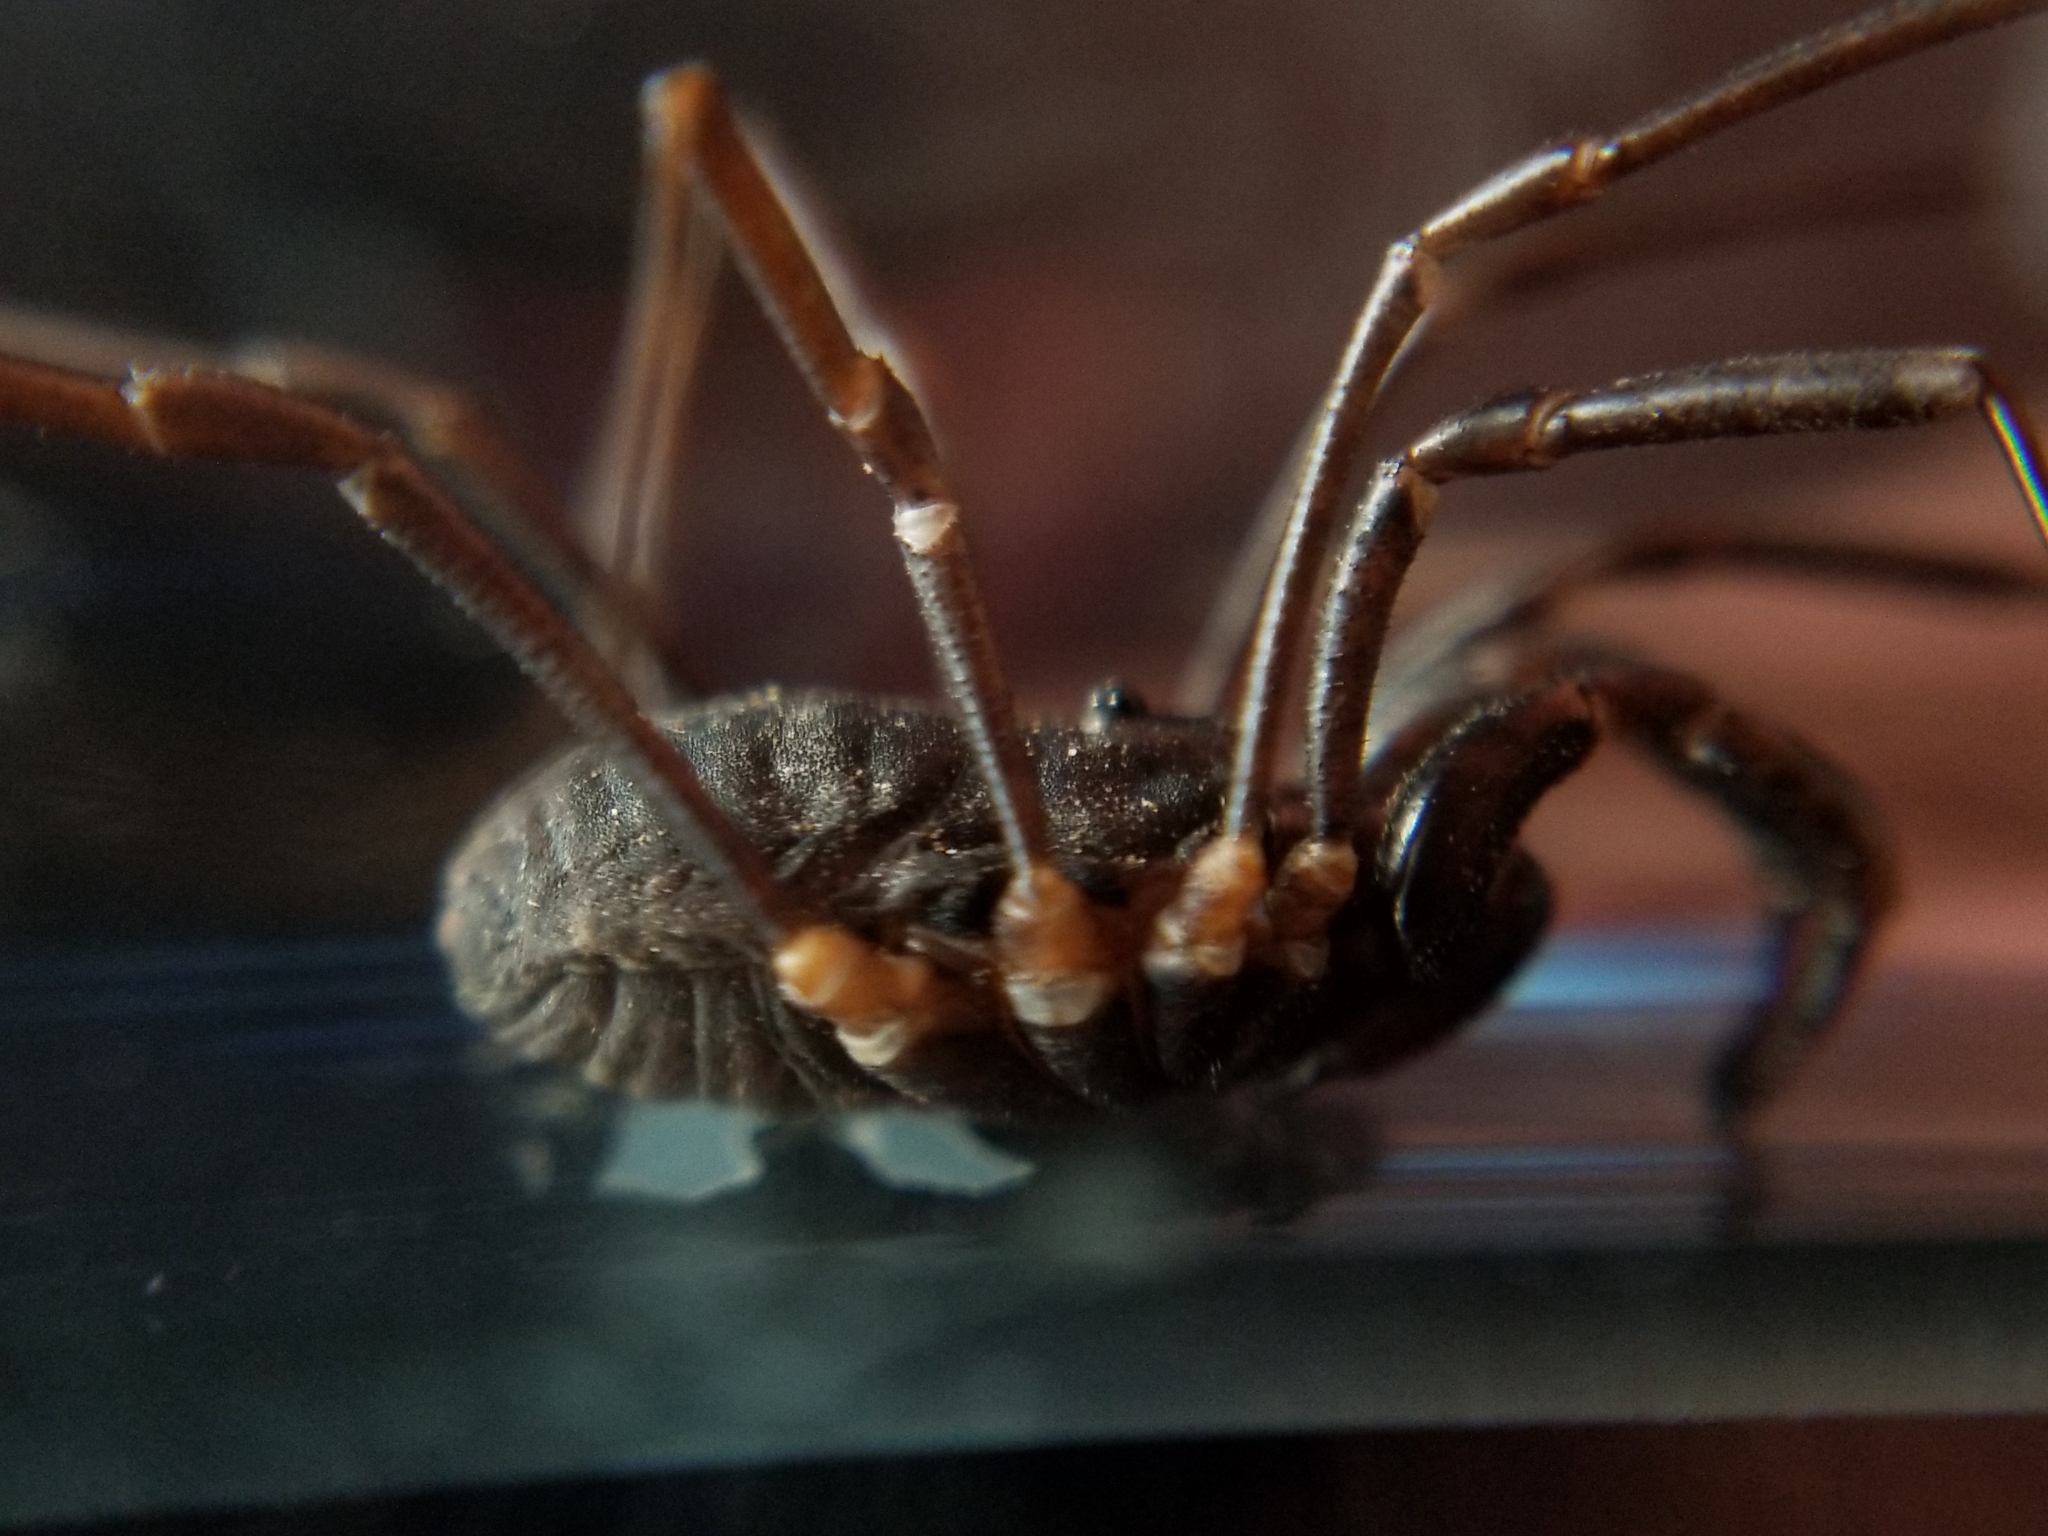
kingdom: Animalia
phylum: Arthropoda
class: Arachnida
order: Opiliones
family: Protolophidae
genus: Protolophus
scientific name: Protolophus niger
